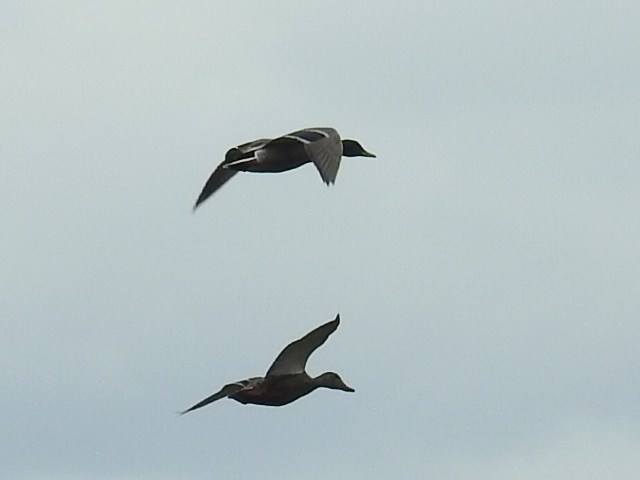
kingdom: Animalia
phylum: Chordata
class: Aves
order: Anseriformes
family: Anatidae
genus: Anas
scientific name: Anas platyrhynchos
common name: Mallard
